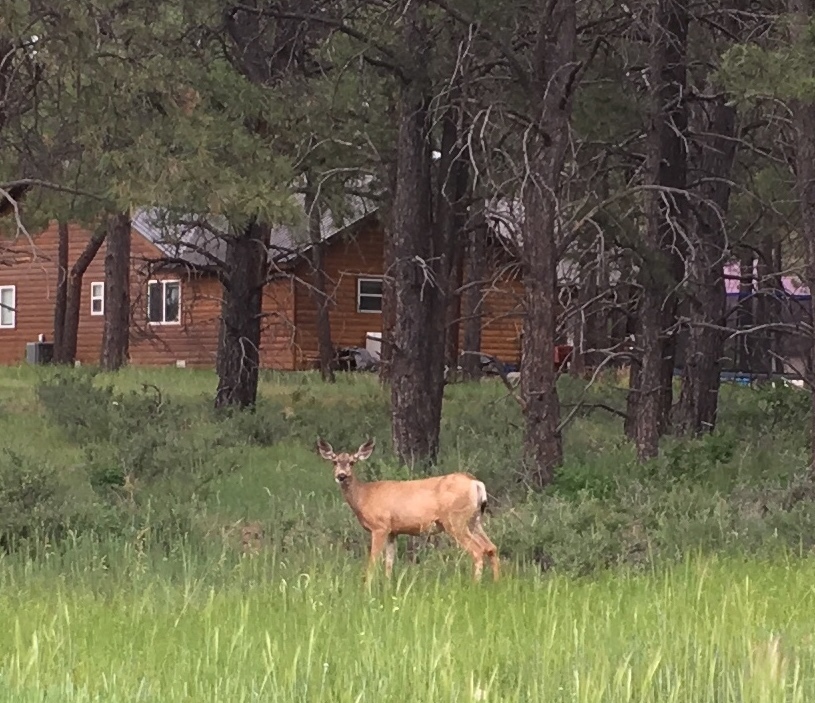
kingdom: Animalia
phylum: Chordata
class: Mammalia
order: Artiodactyla
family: Cervidae
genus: Odocoileus
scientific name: Odocoileus hemionus
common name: Mule deer
